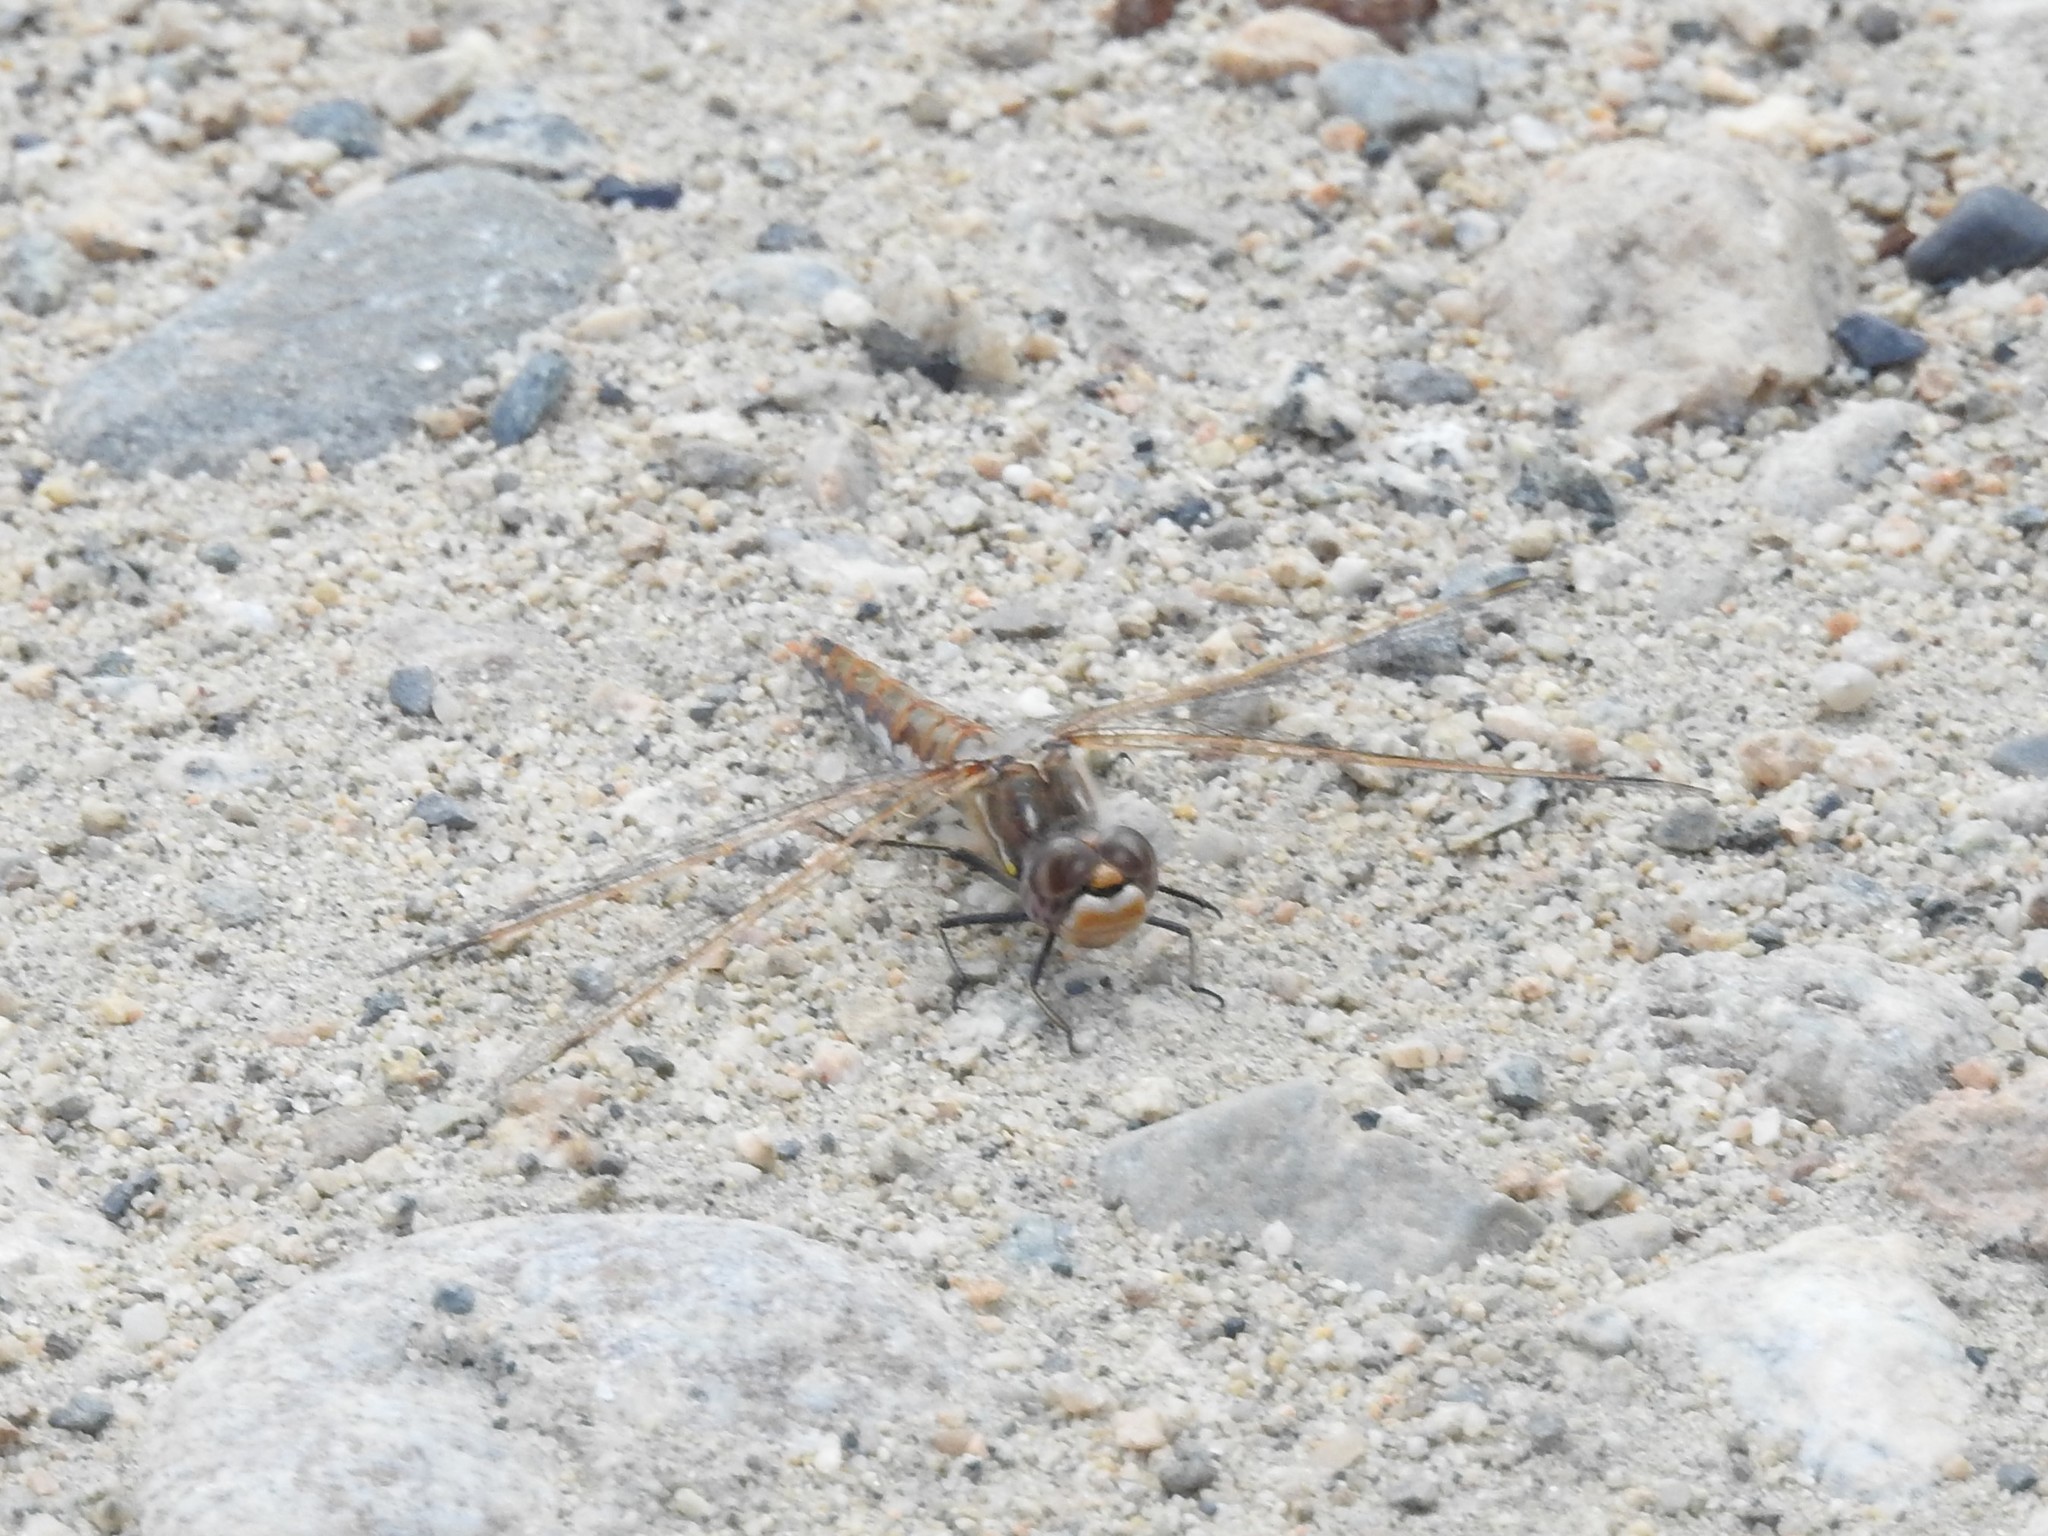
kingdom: Animalia
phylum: Arthropoda
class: Insecta
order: Odonata
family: Libellulidae
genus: Sympetrum
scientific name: Sympetrum corruptum
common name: Variegated meadowhawk
